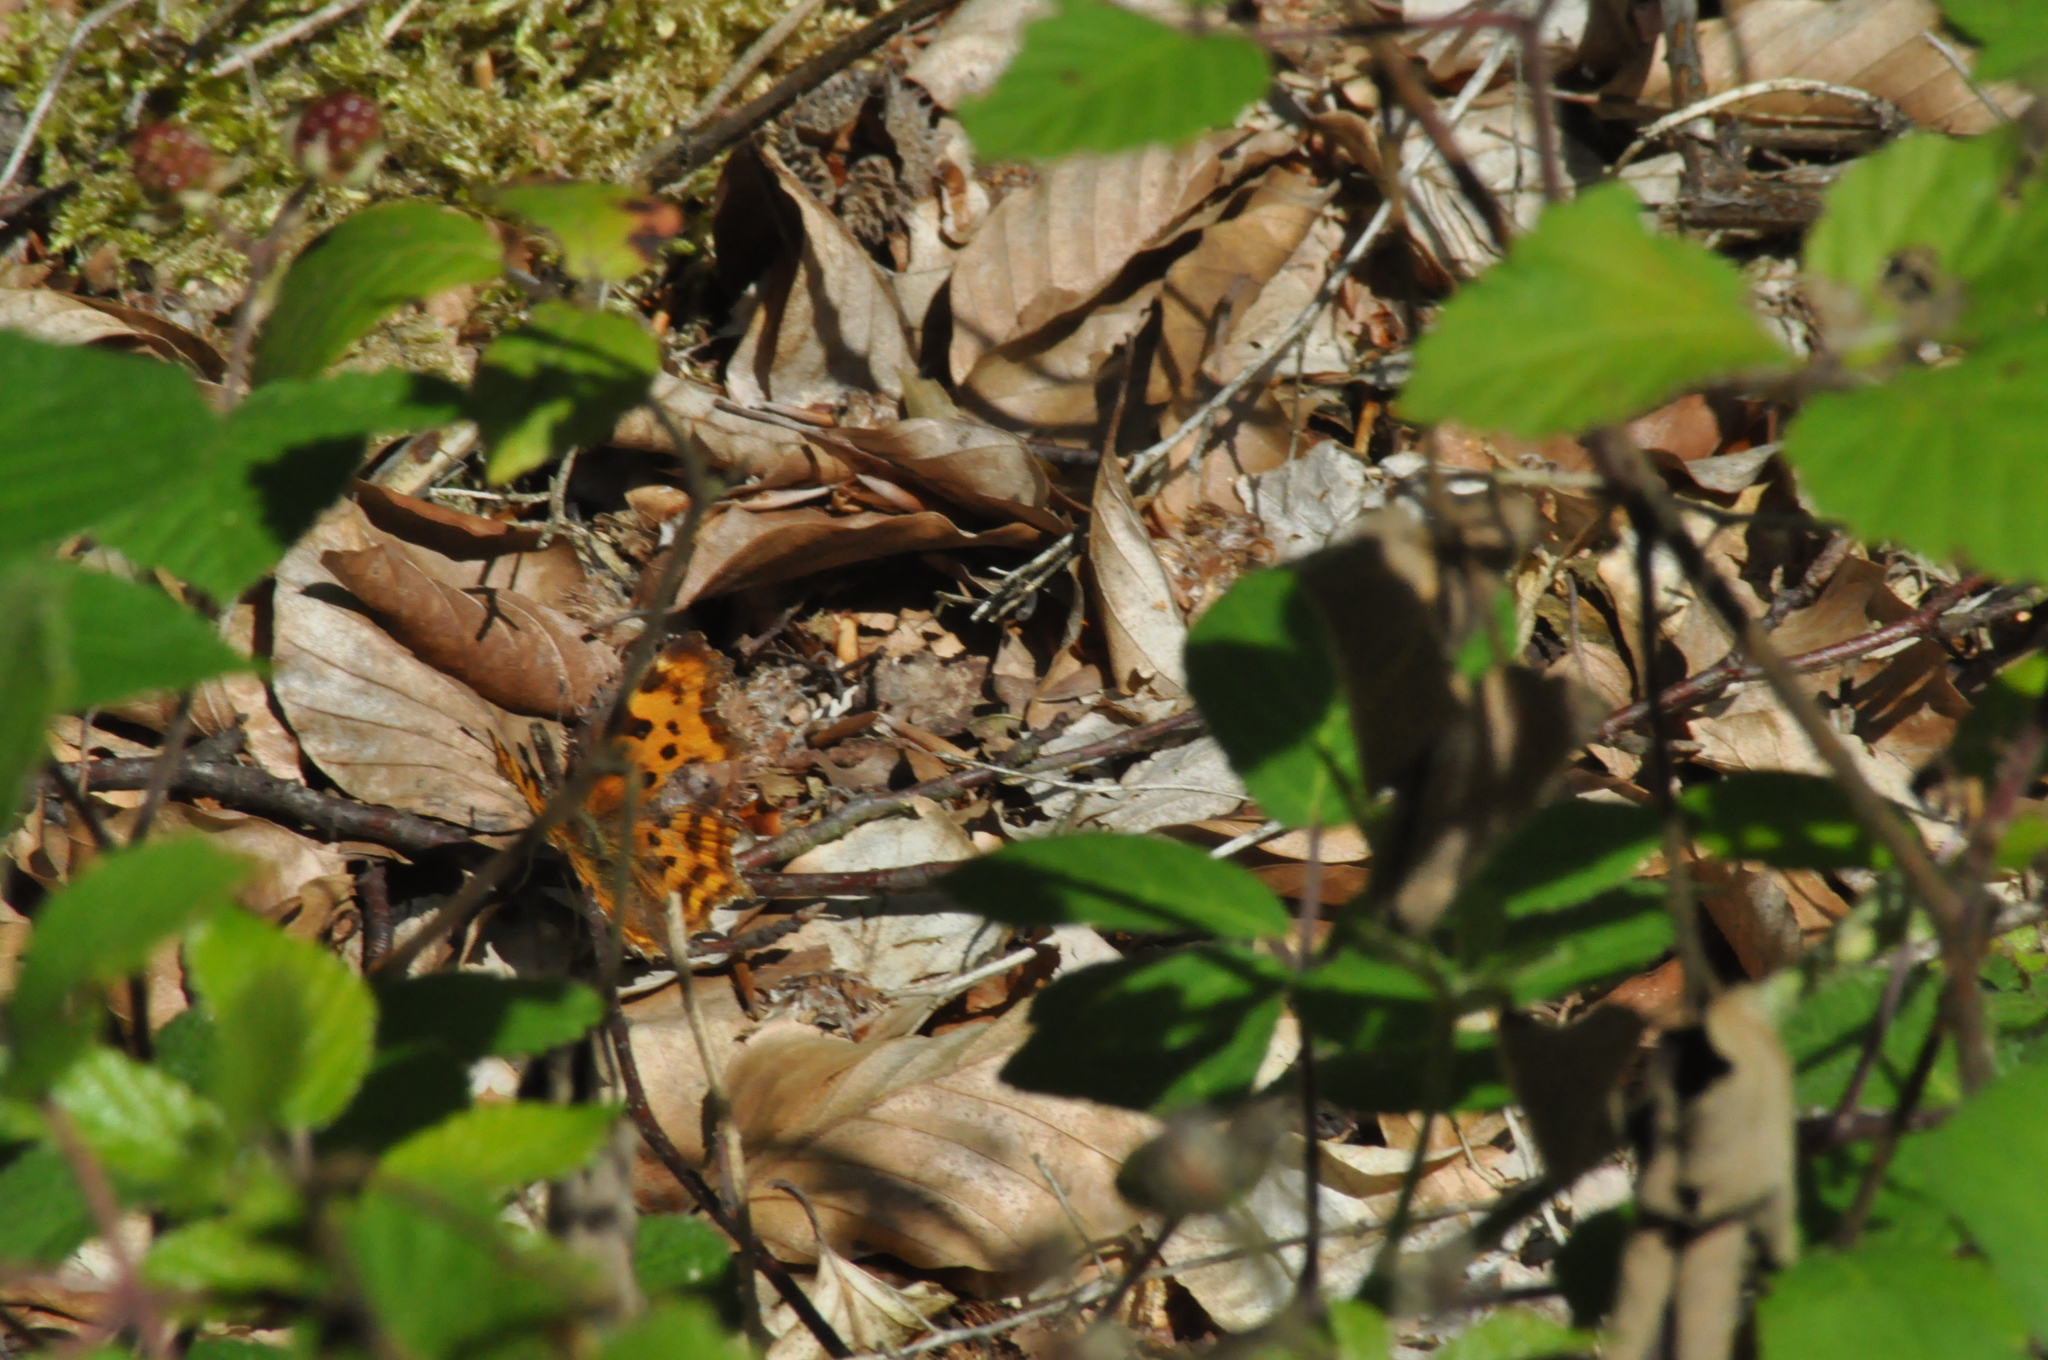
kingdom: Animalia
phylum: Arthropoda
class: Insecta
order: Lepidoptera
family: Nymphalidae
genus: Polygonia
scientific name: Polygonia c-album
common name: Comma
